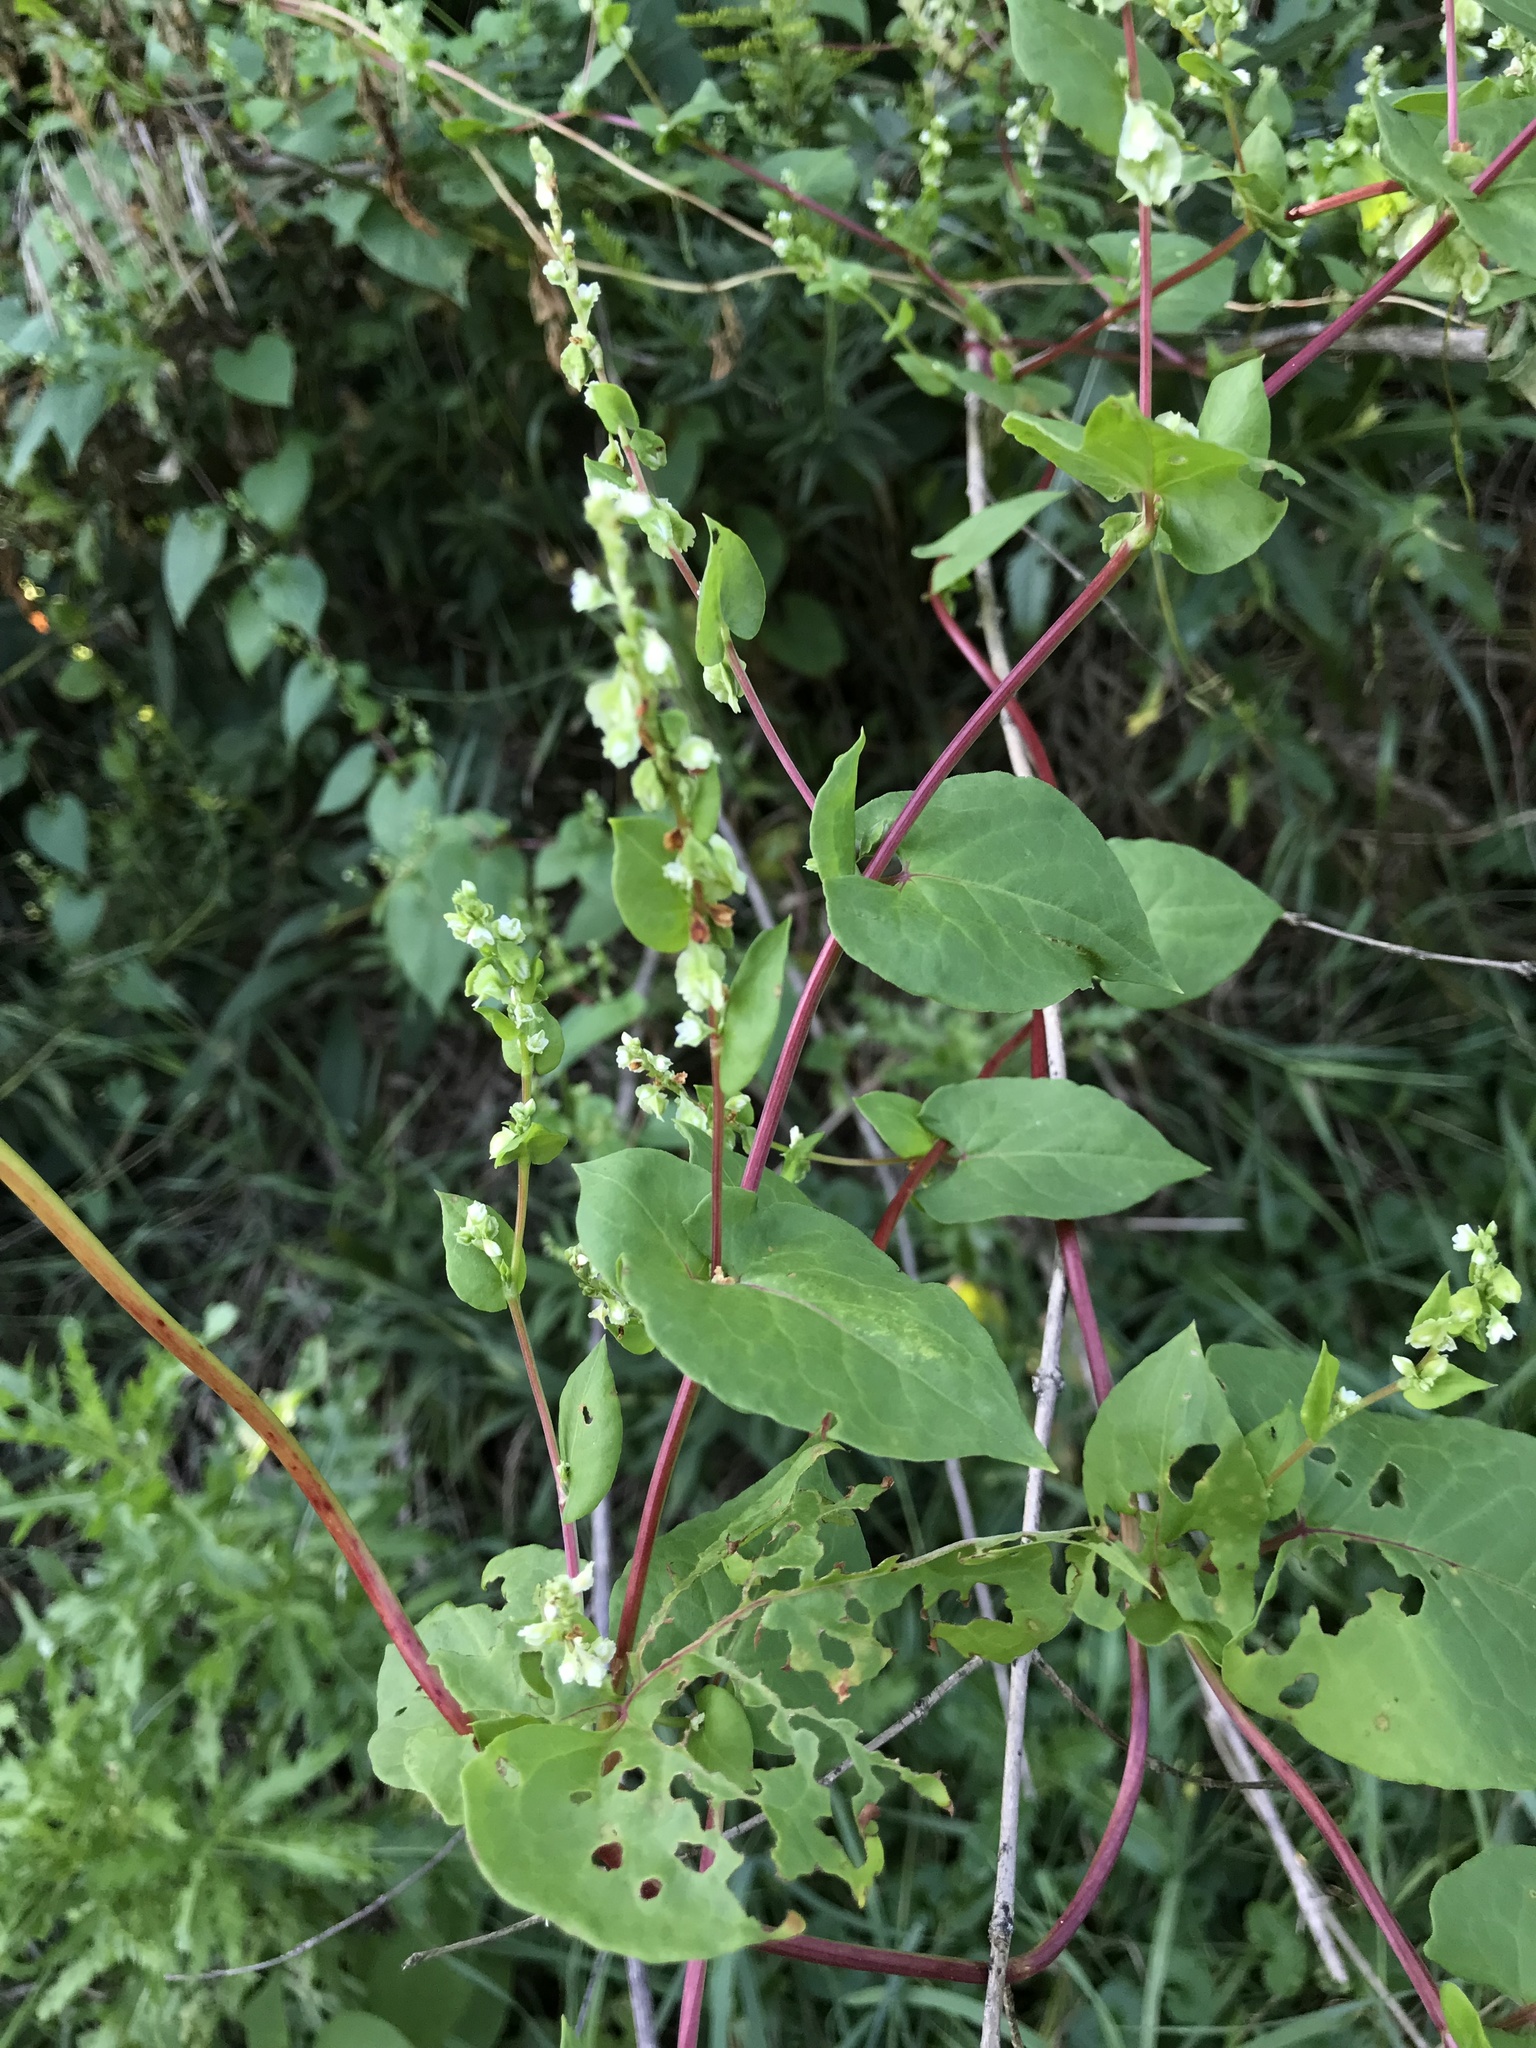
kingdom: Plantae
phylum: Tracheophyta
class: Magnoliopsida
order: Caryophyllales
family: Polygonaceae
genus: Fallopia
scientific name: Fallopia scandens
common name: Climbing false buckwheat
